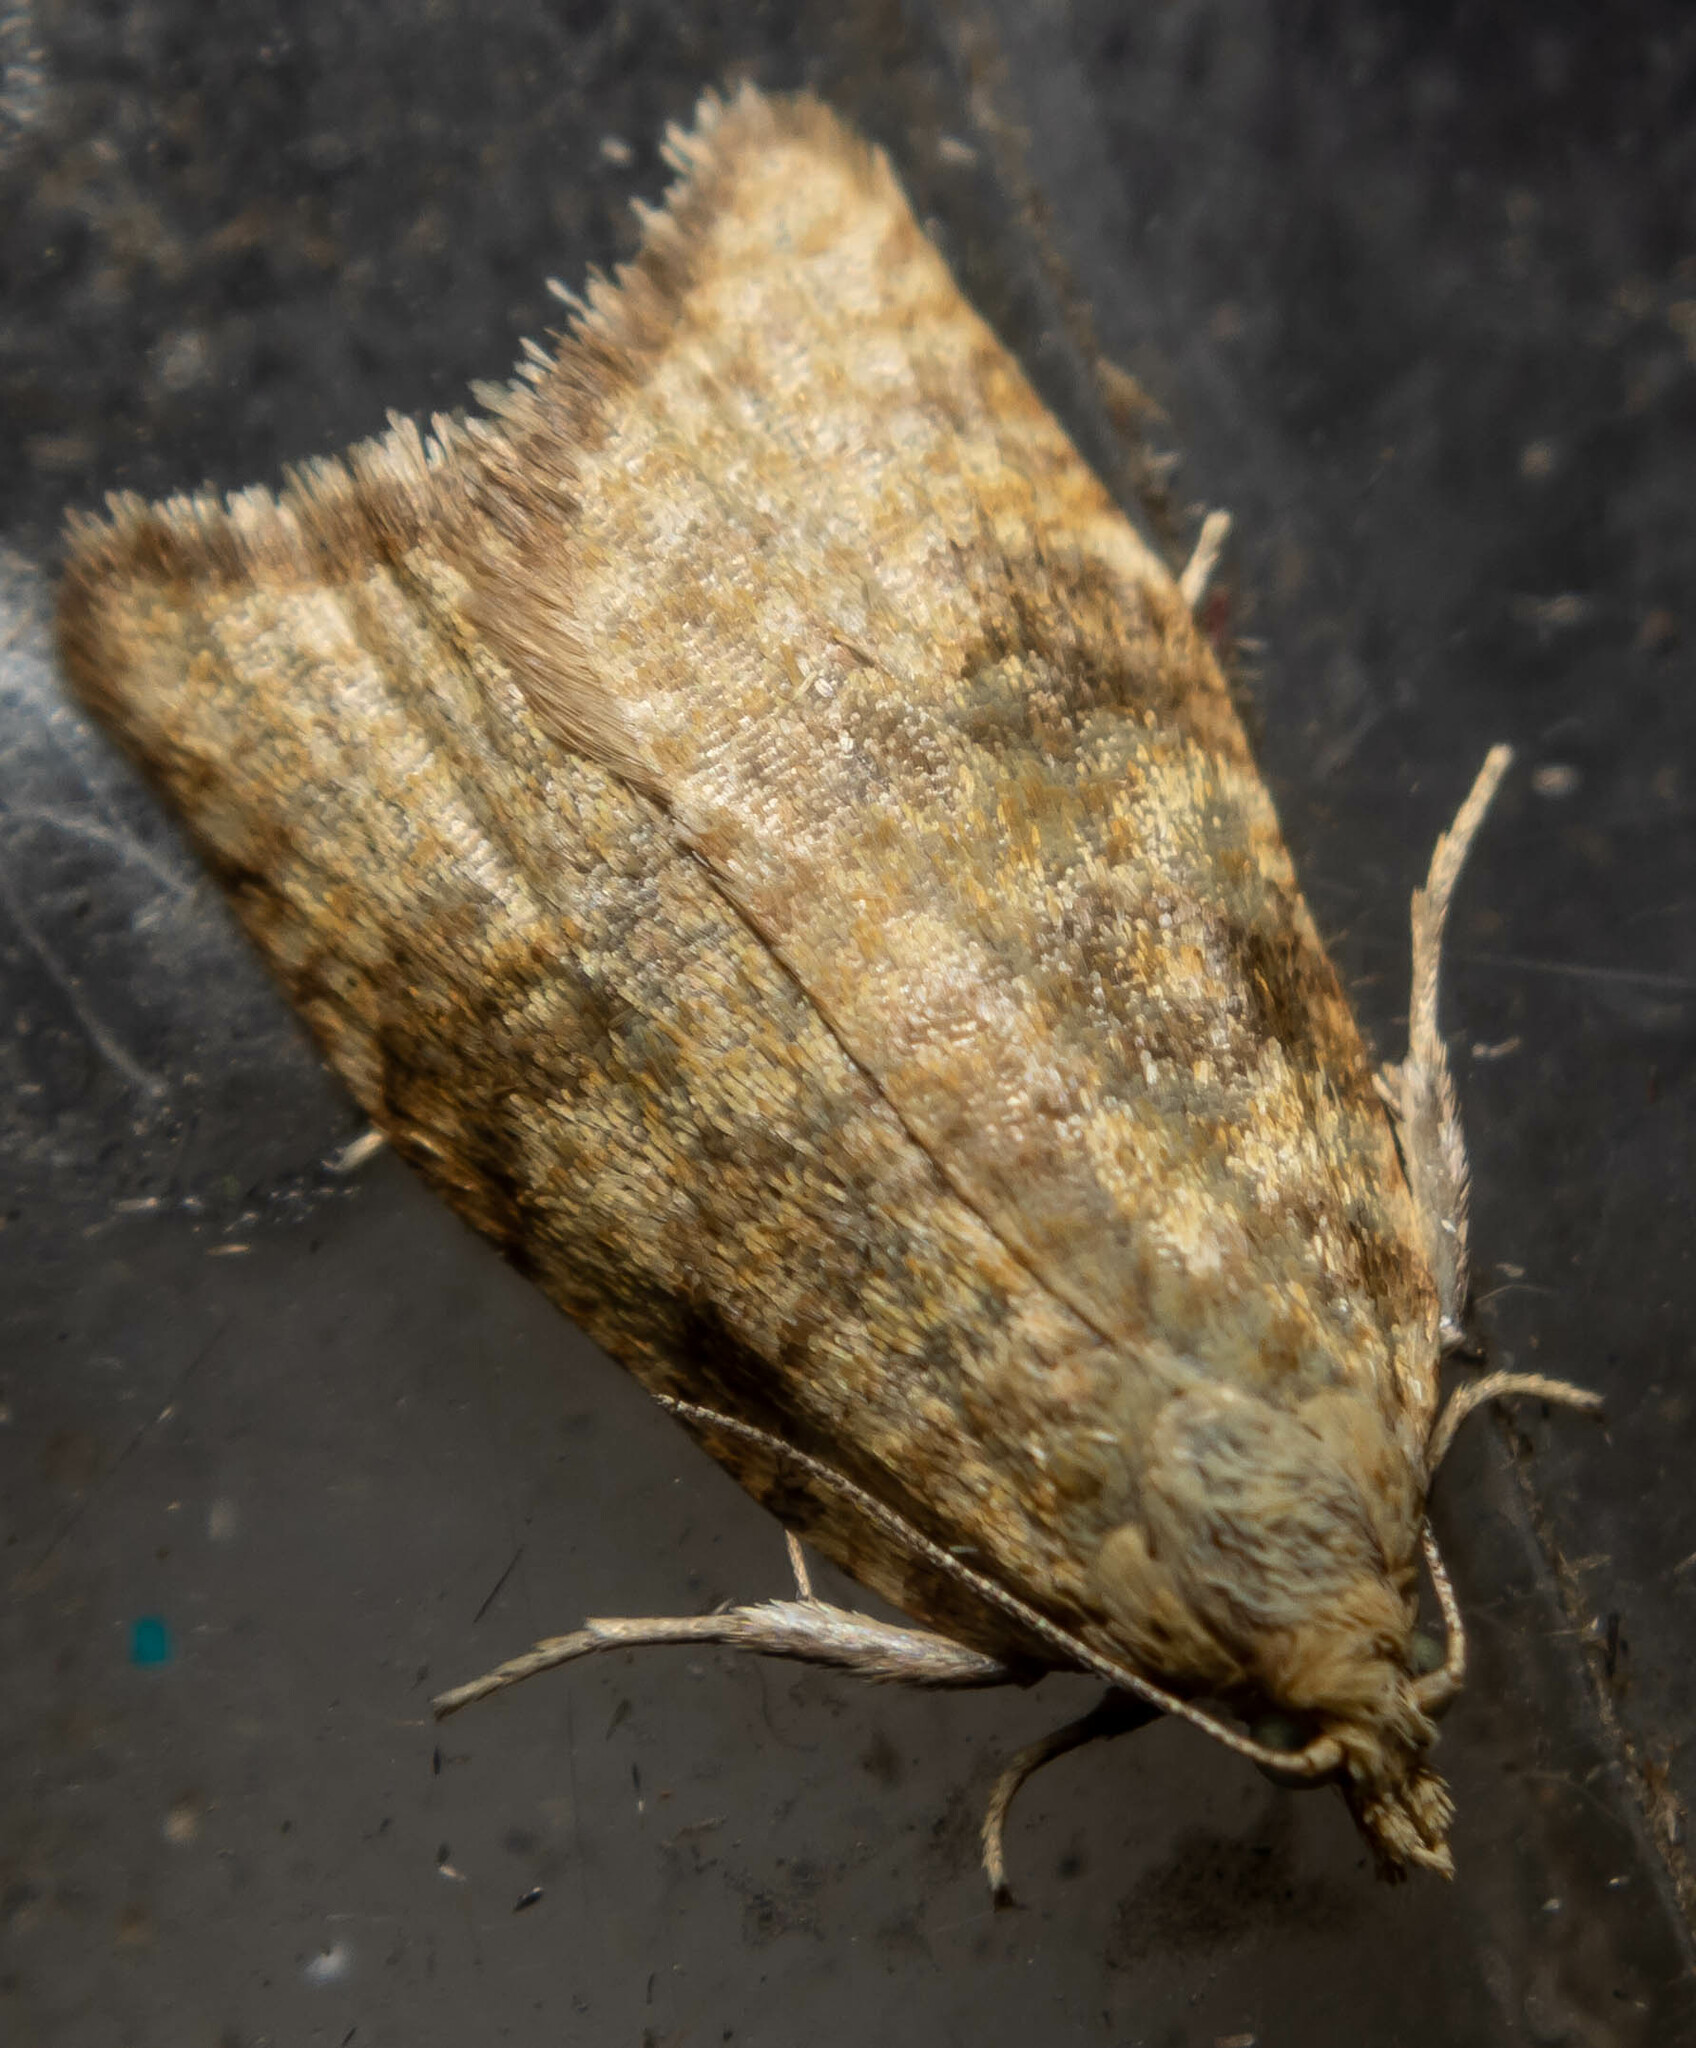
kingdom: Animalia
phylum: Arthropoda
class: Insecta
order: Lepidoptera
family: Tortricidae
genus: Aleimma
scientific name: Aleimma loeflingiana
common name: Yellow oak button
